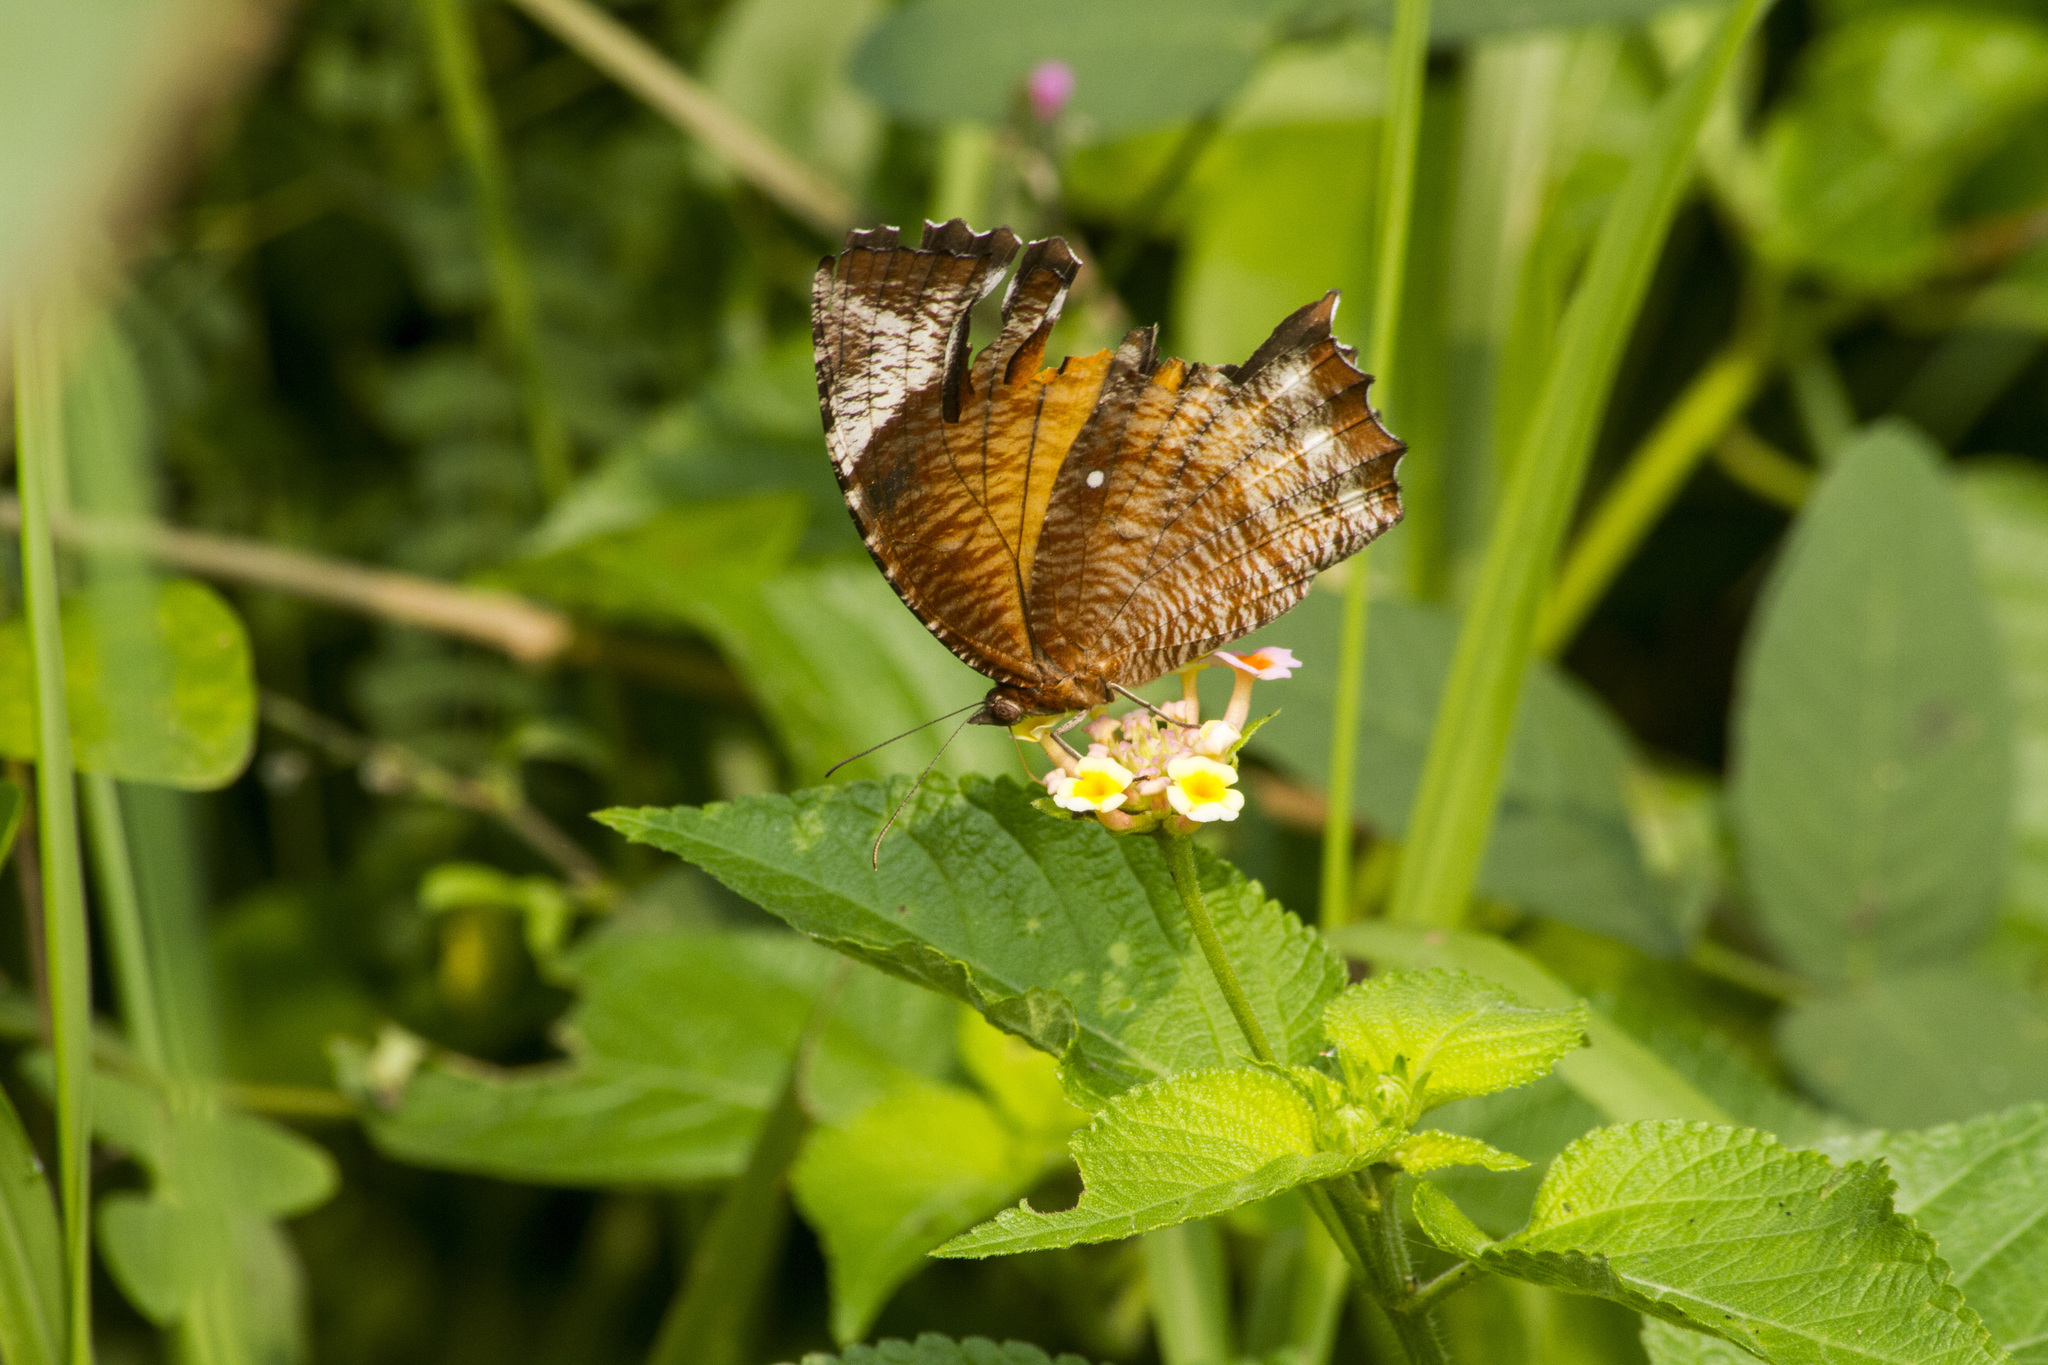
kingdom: Animalia
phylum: Arthropoda
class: Insecta
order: Lepidoptera
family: Nymphalidae
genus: Elymnias
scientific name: Elymnias hypermnestra
